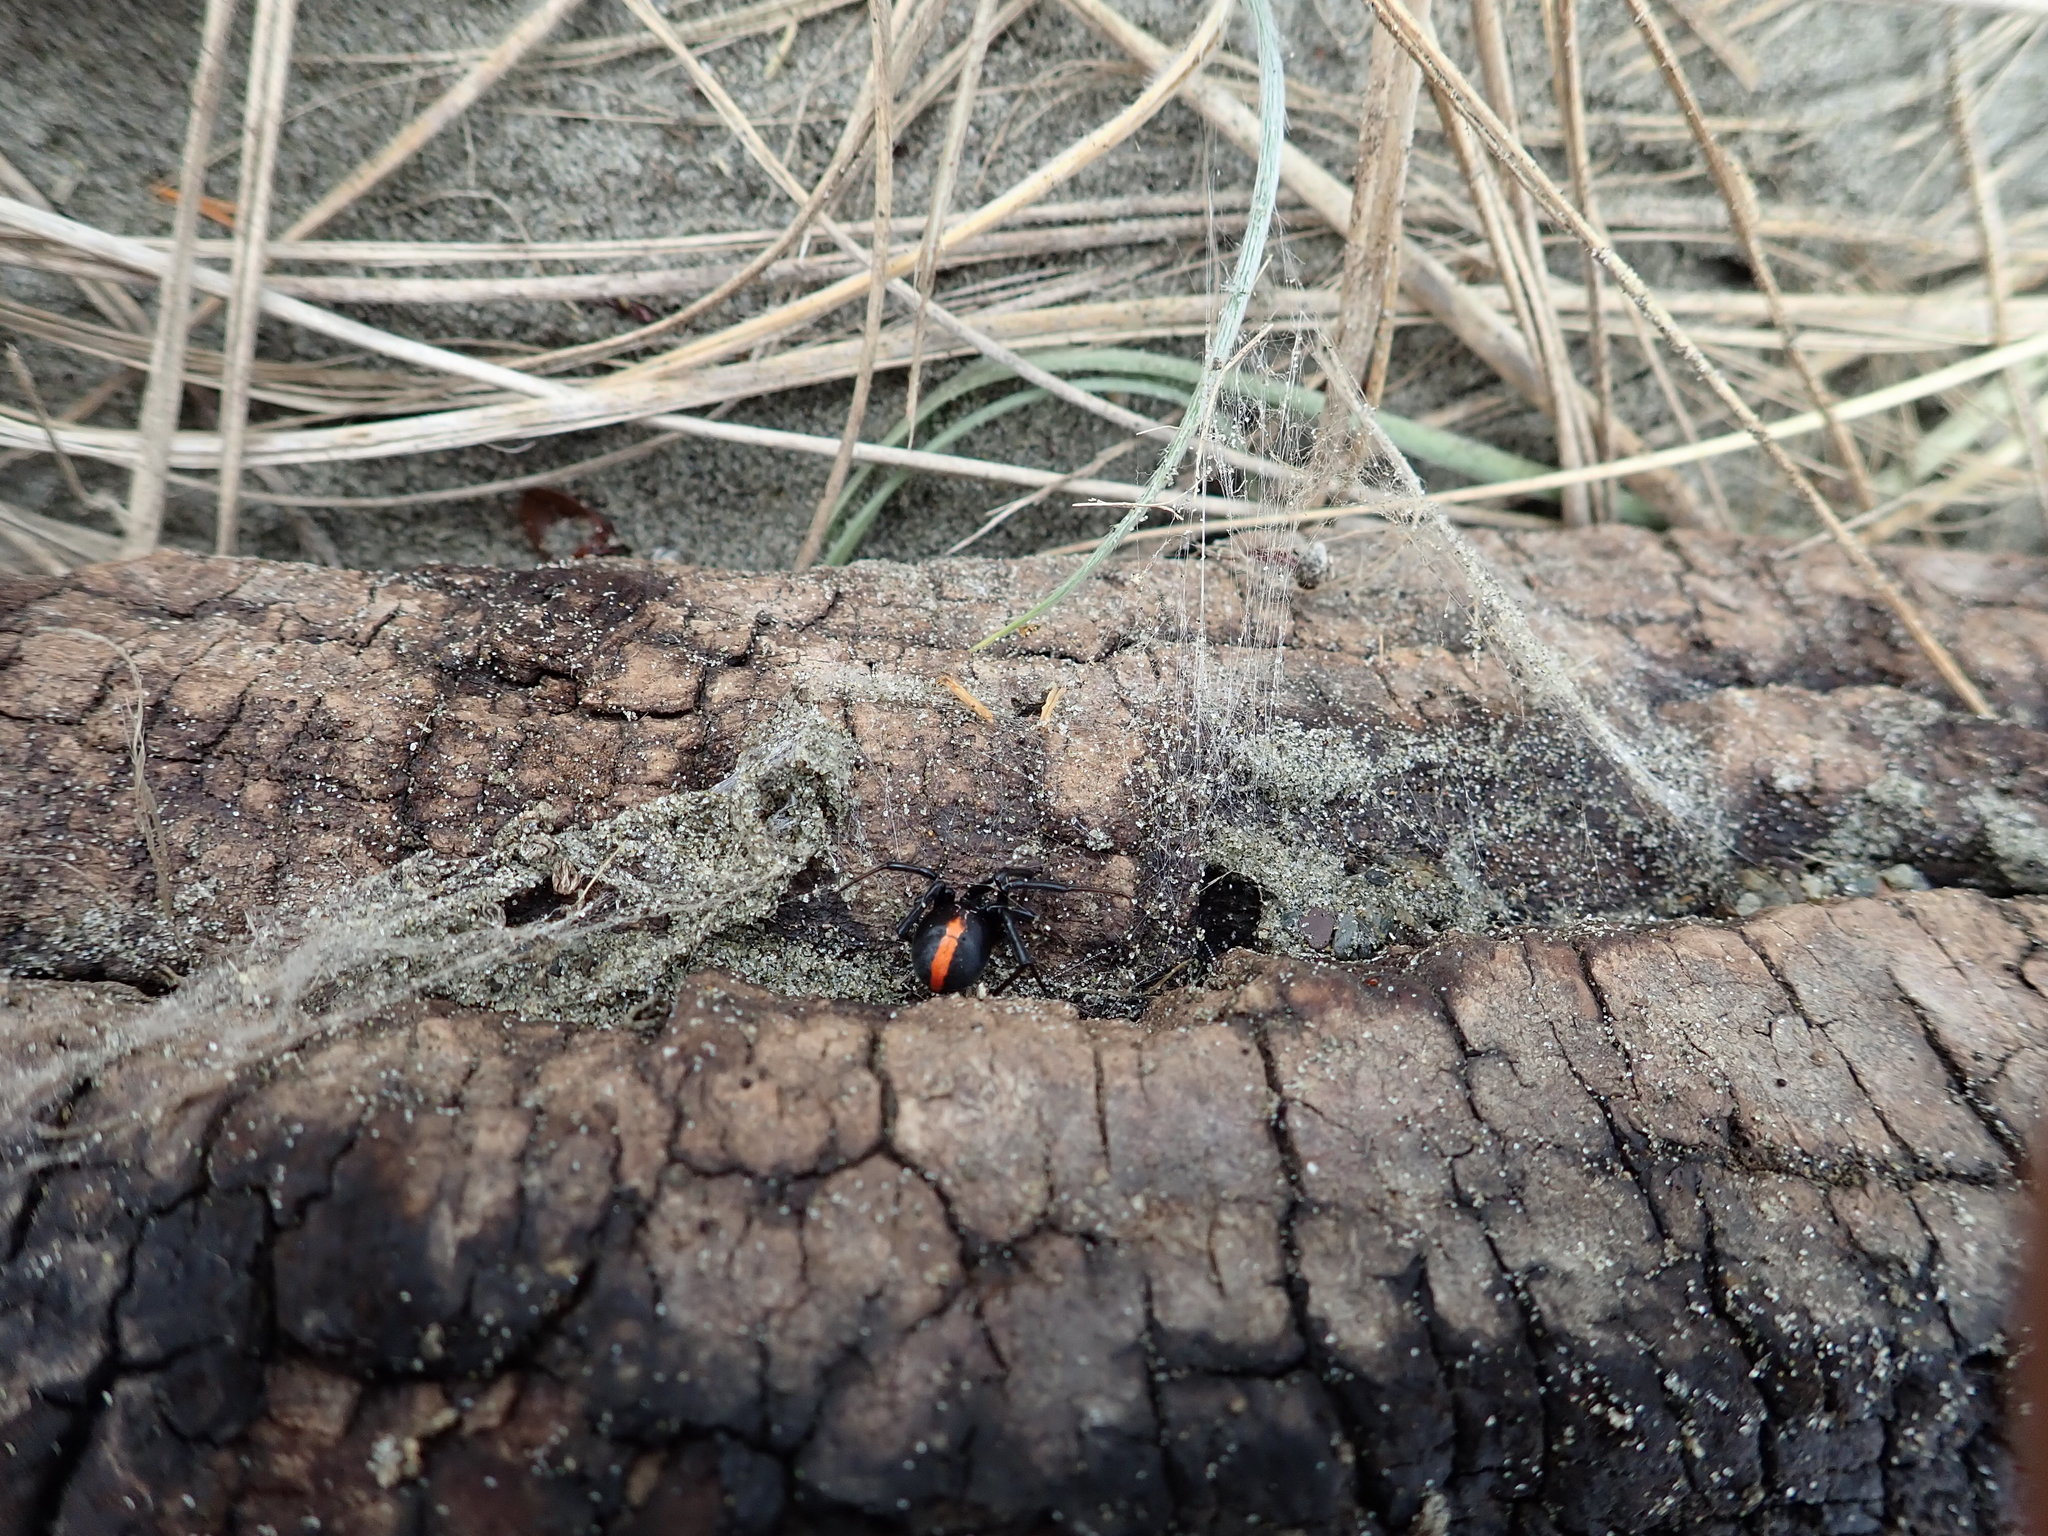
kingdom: Animalia
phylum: Arthropoda
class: Arachnida
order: Araneae
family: Theridiidae
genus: Latrodectus
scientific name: Latrodectus katipo
